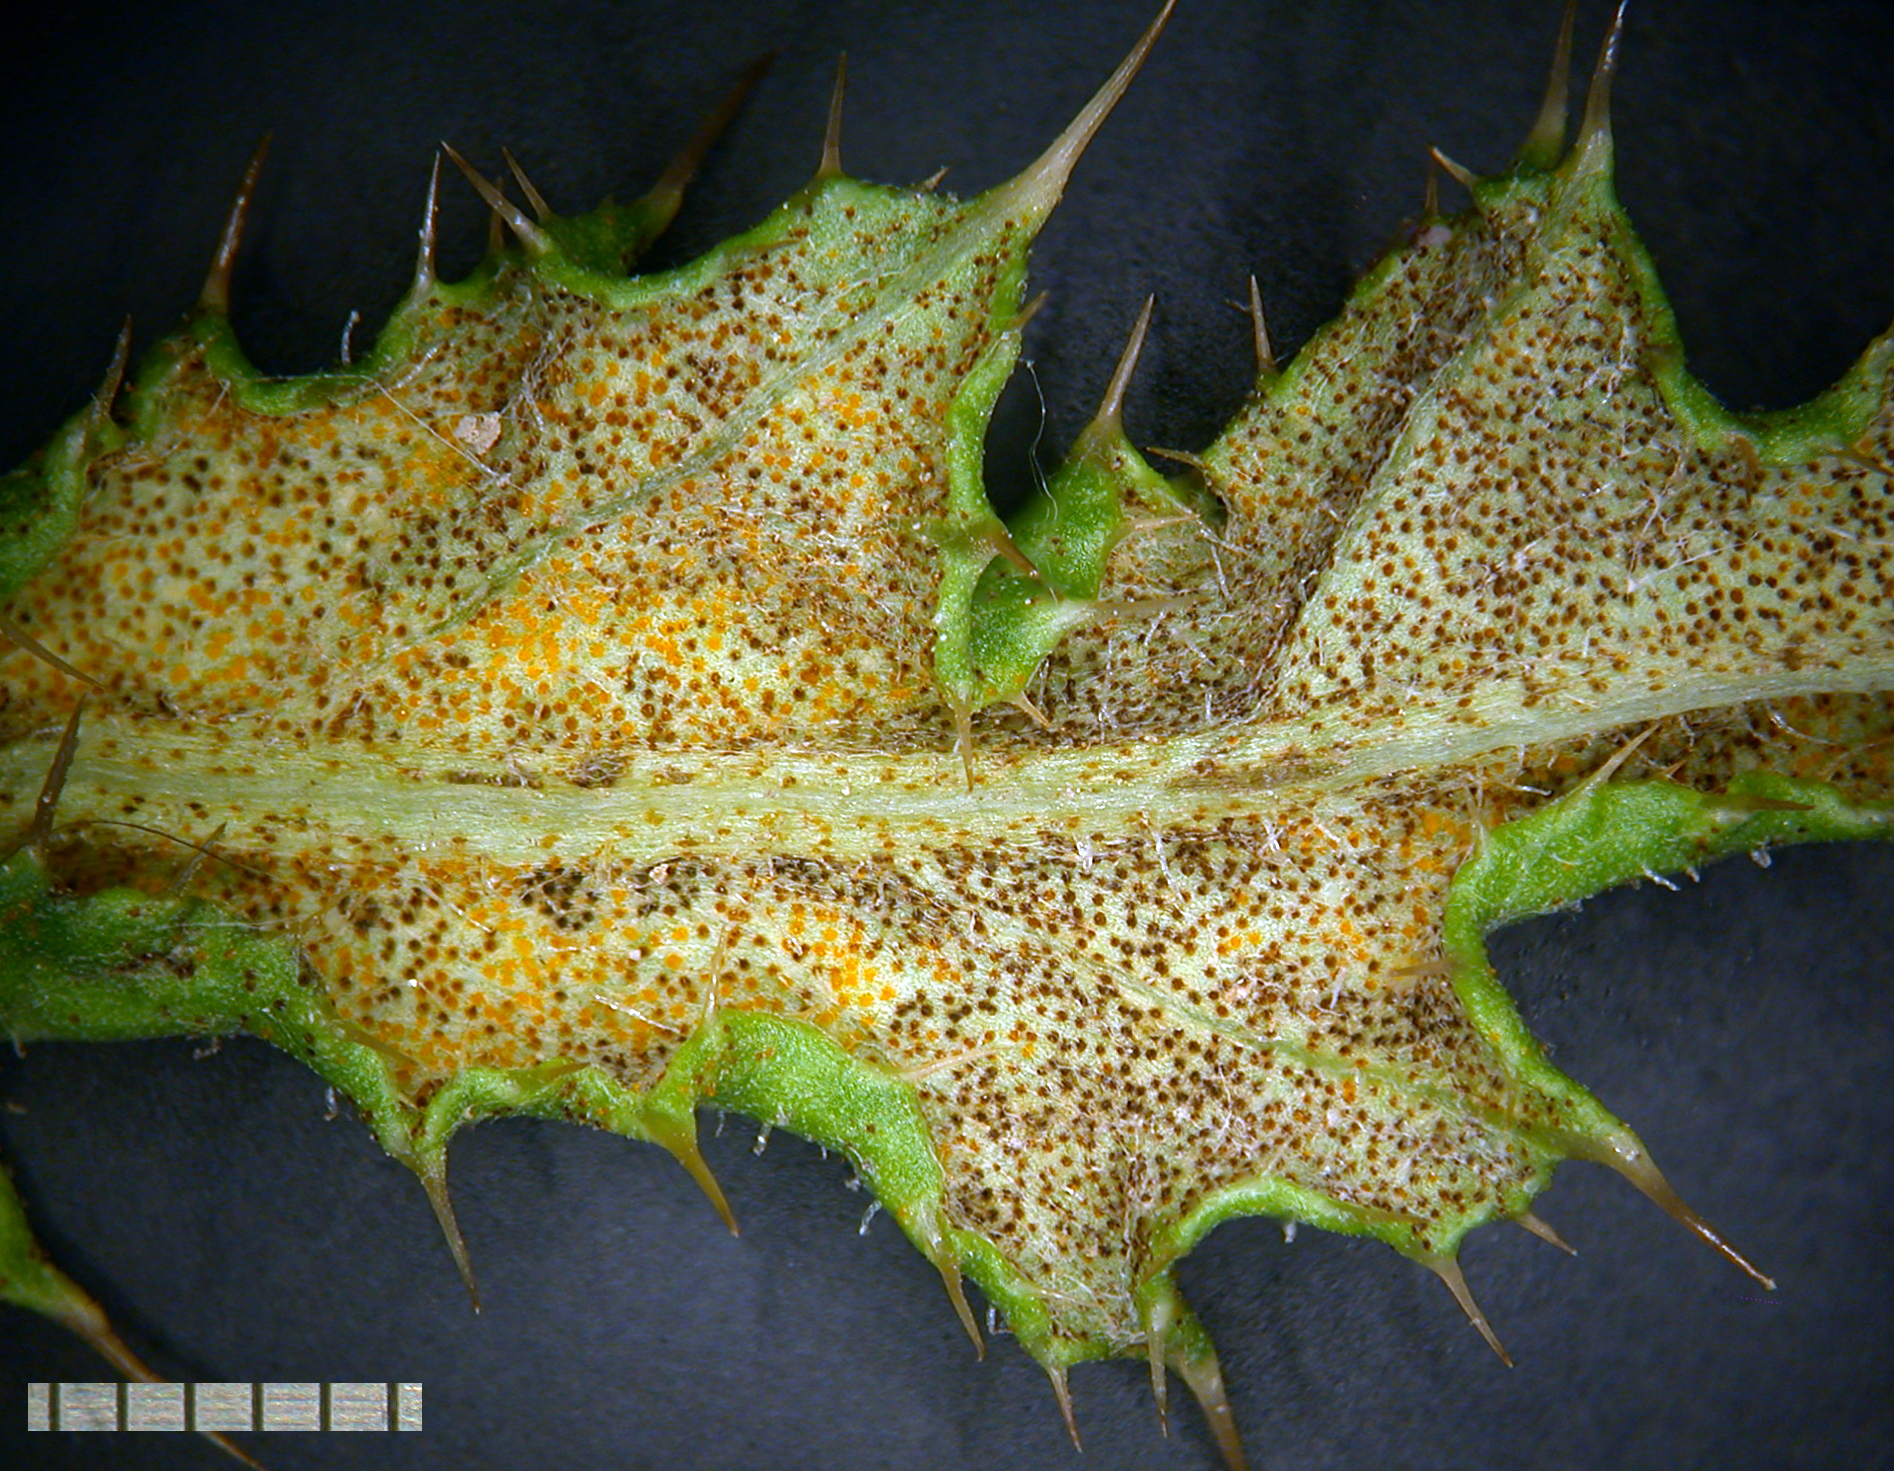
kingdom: Fungi
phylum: Basidiomycota
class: Pucciniomycetes
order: Pucciniales
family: Pucciniaceae
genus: Puccinia
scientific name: Puccinia suaveolens
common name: Thistle rust
